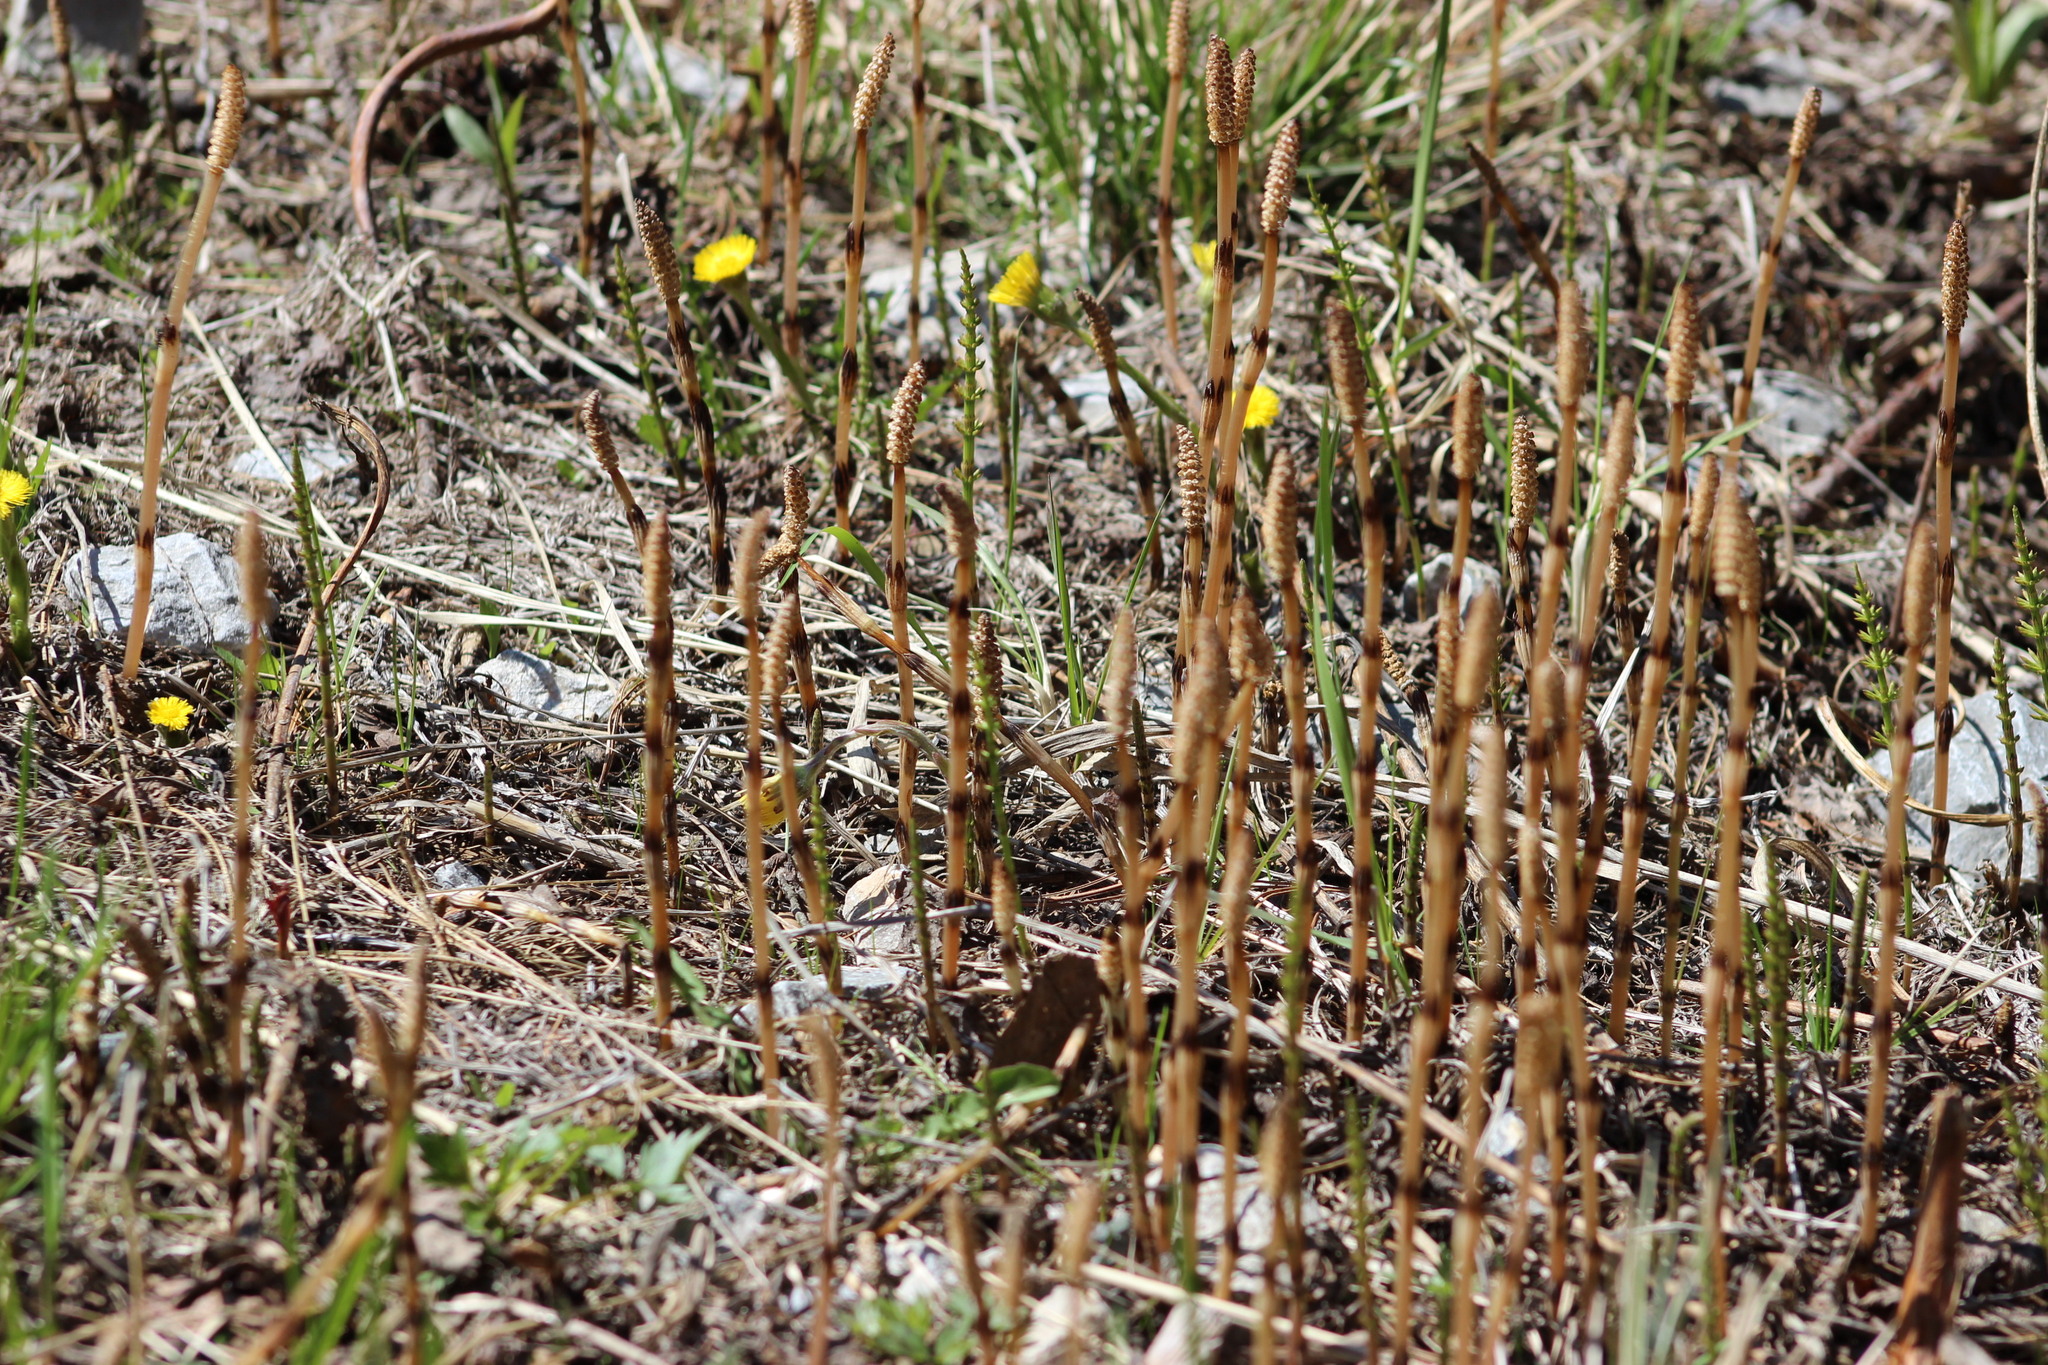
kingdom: Plantae
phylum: Tracheophyta
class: Polypodiopsida
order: Equisetales
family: Equisetaceae
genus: Equisetum
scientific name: Equisetum arvense
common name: Field horsetail
